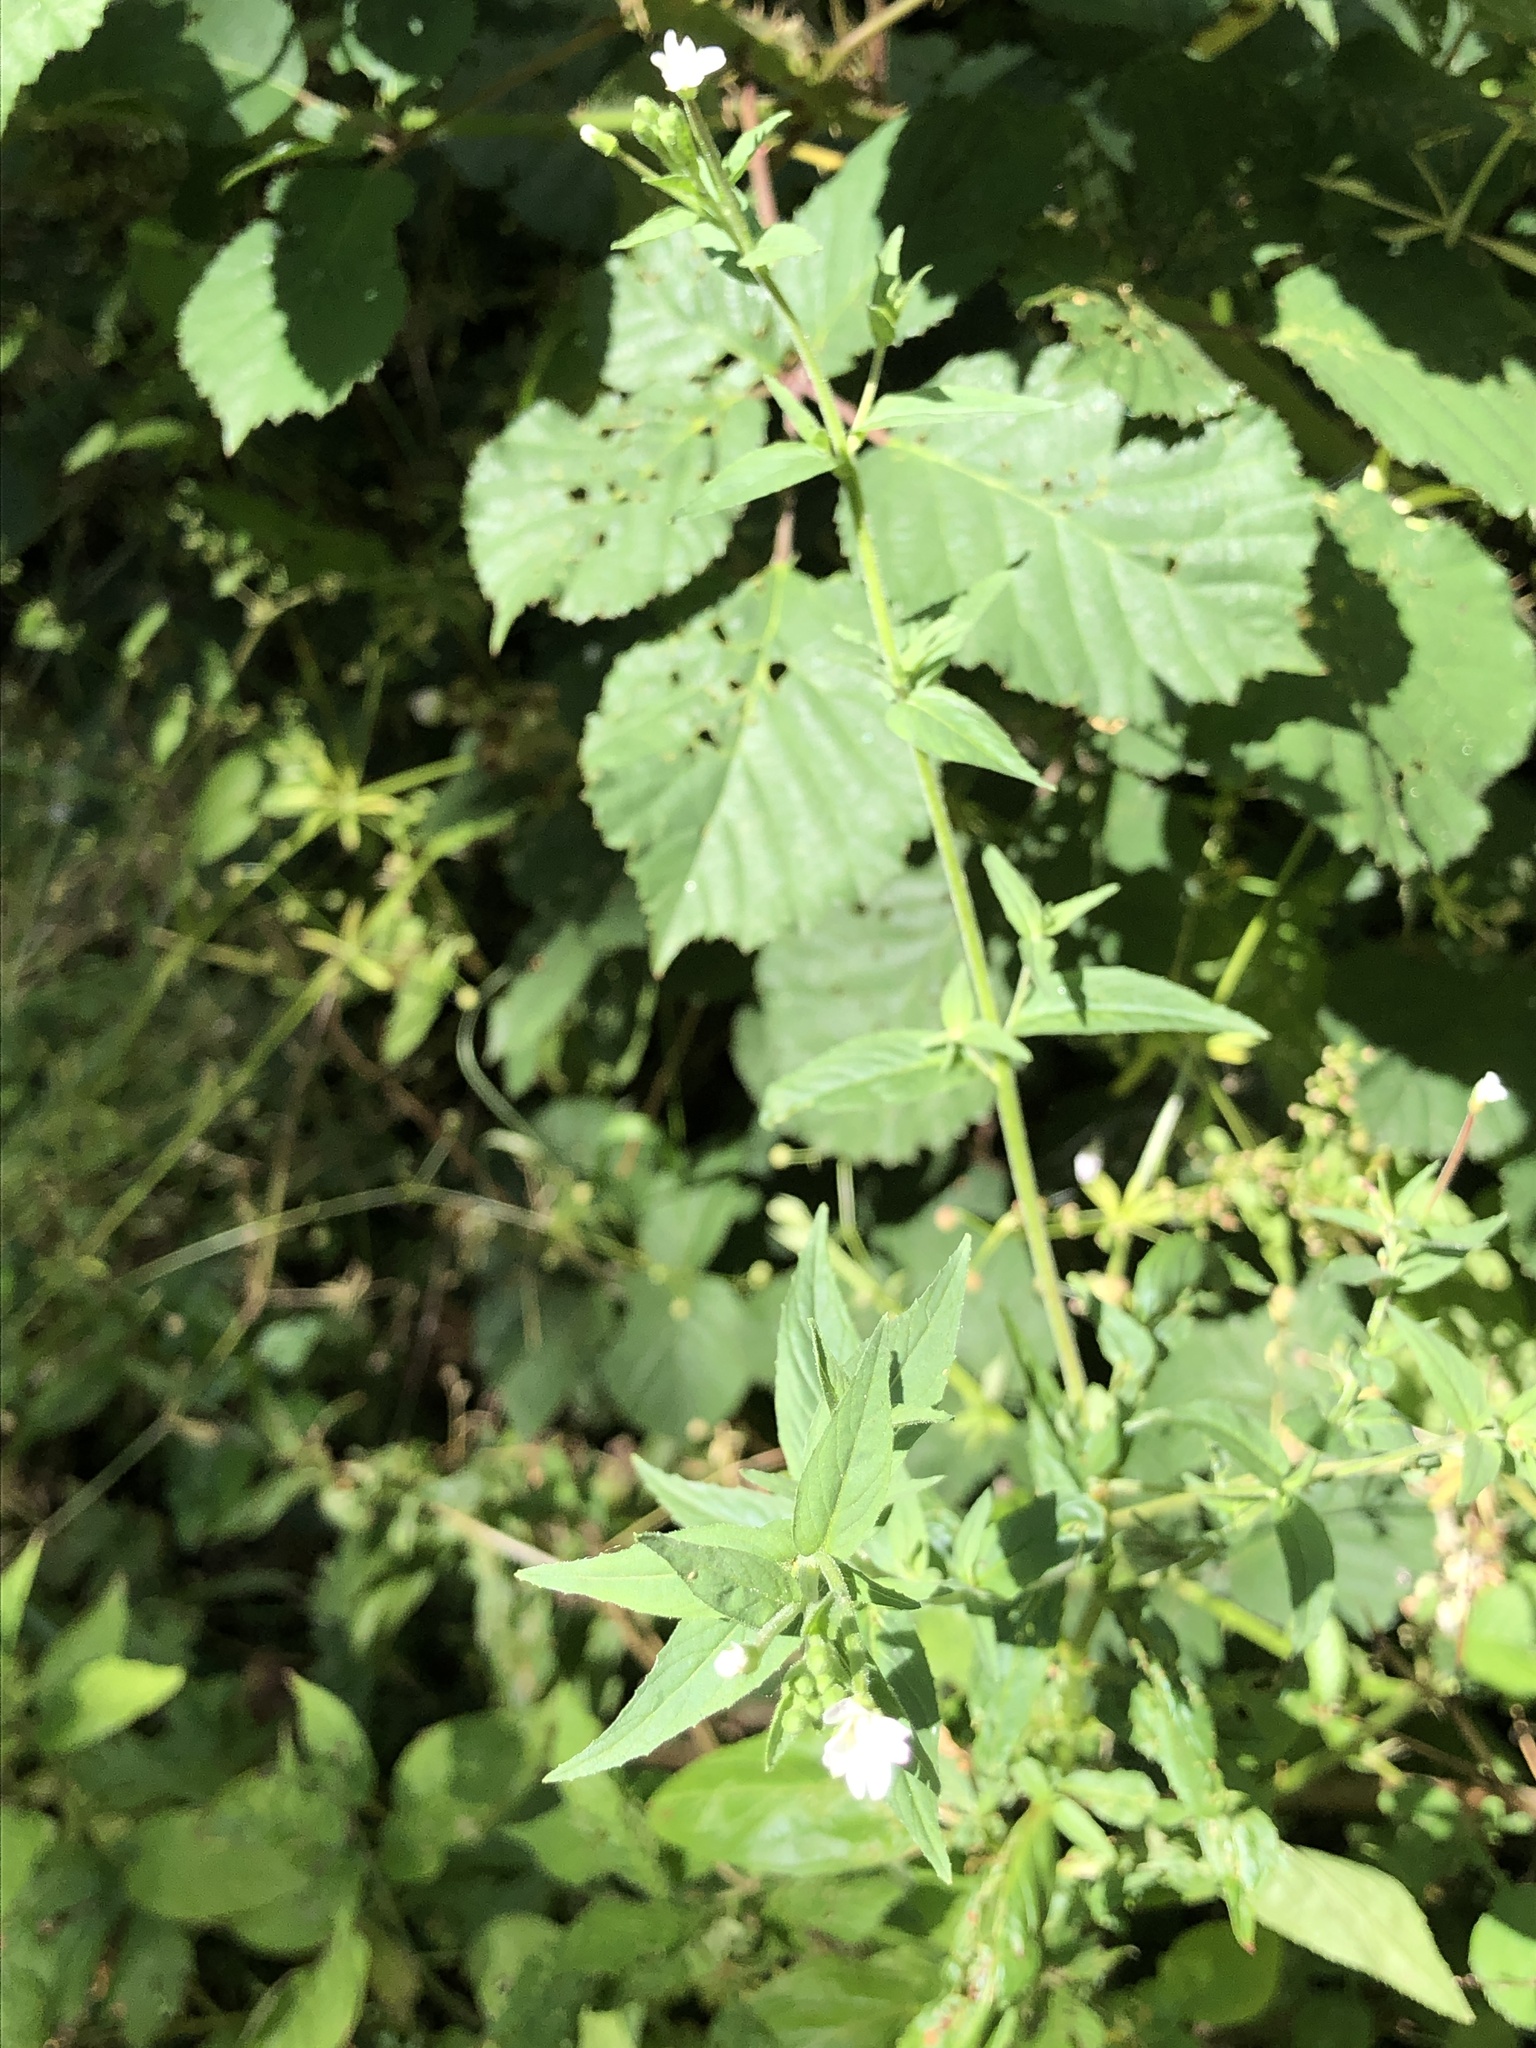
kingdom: Plantae
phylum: Tracheophyta
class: Magnoliopsida
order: Myrtales
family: Onagraceae
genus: Epilobium
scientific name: Epilobium montanum
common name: Broad-leaved willowherb
